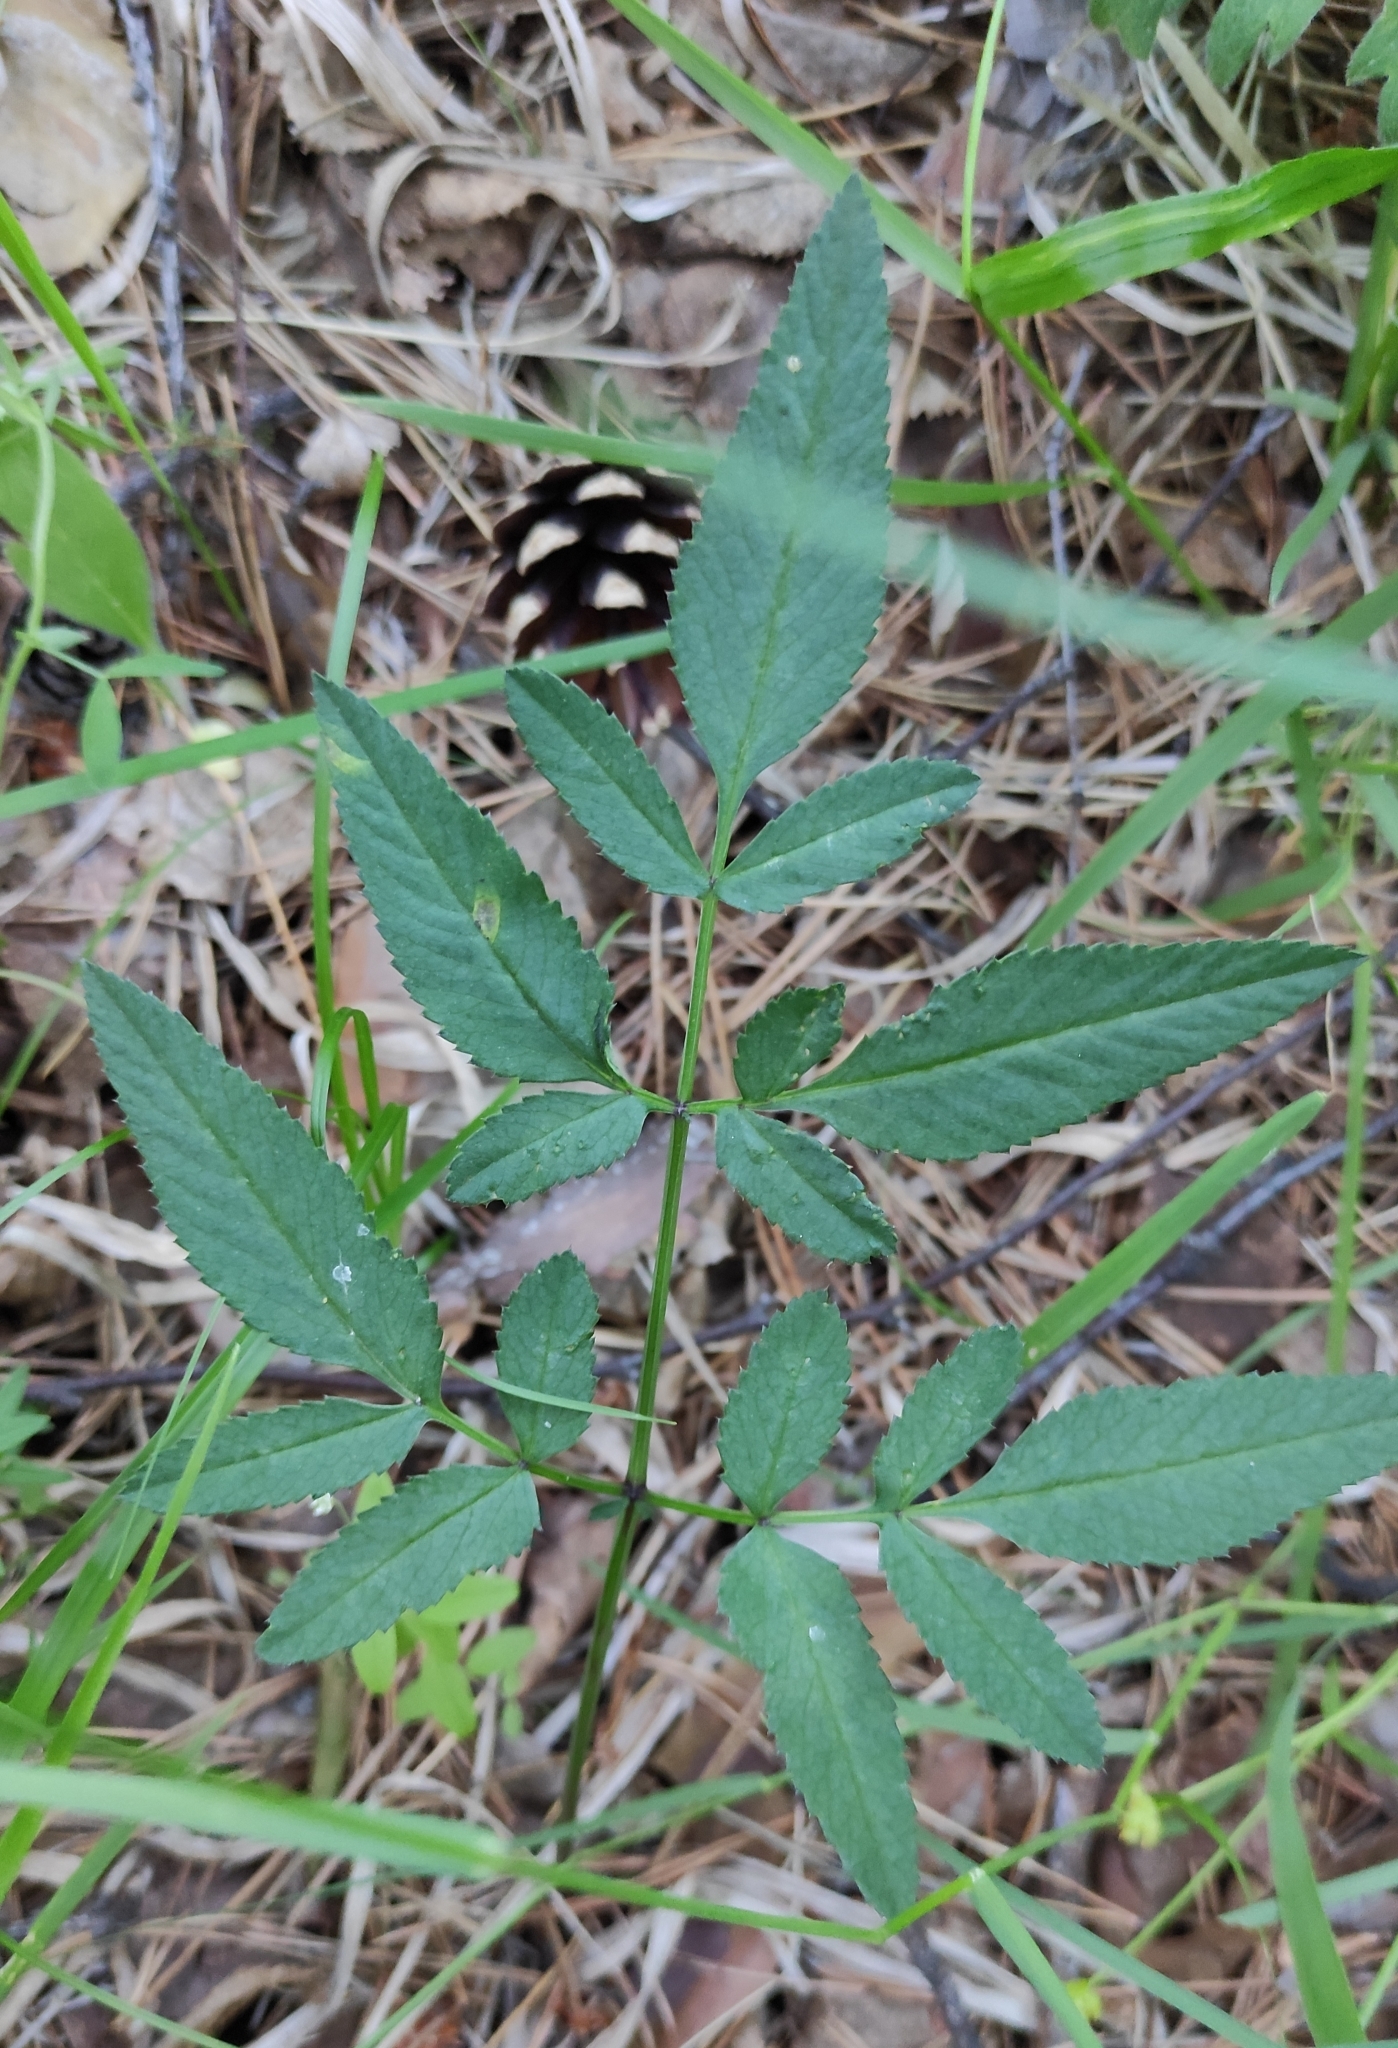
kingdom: Plantae
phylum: Tracheophyta
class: Magnoliopsida
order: Apiales
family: Apiaceae
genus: Angelica
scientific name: Angelica sylvestris
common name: Wild angelica
